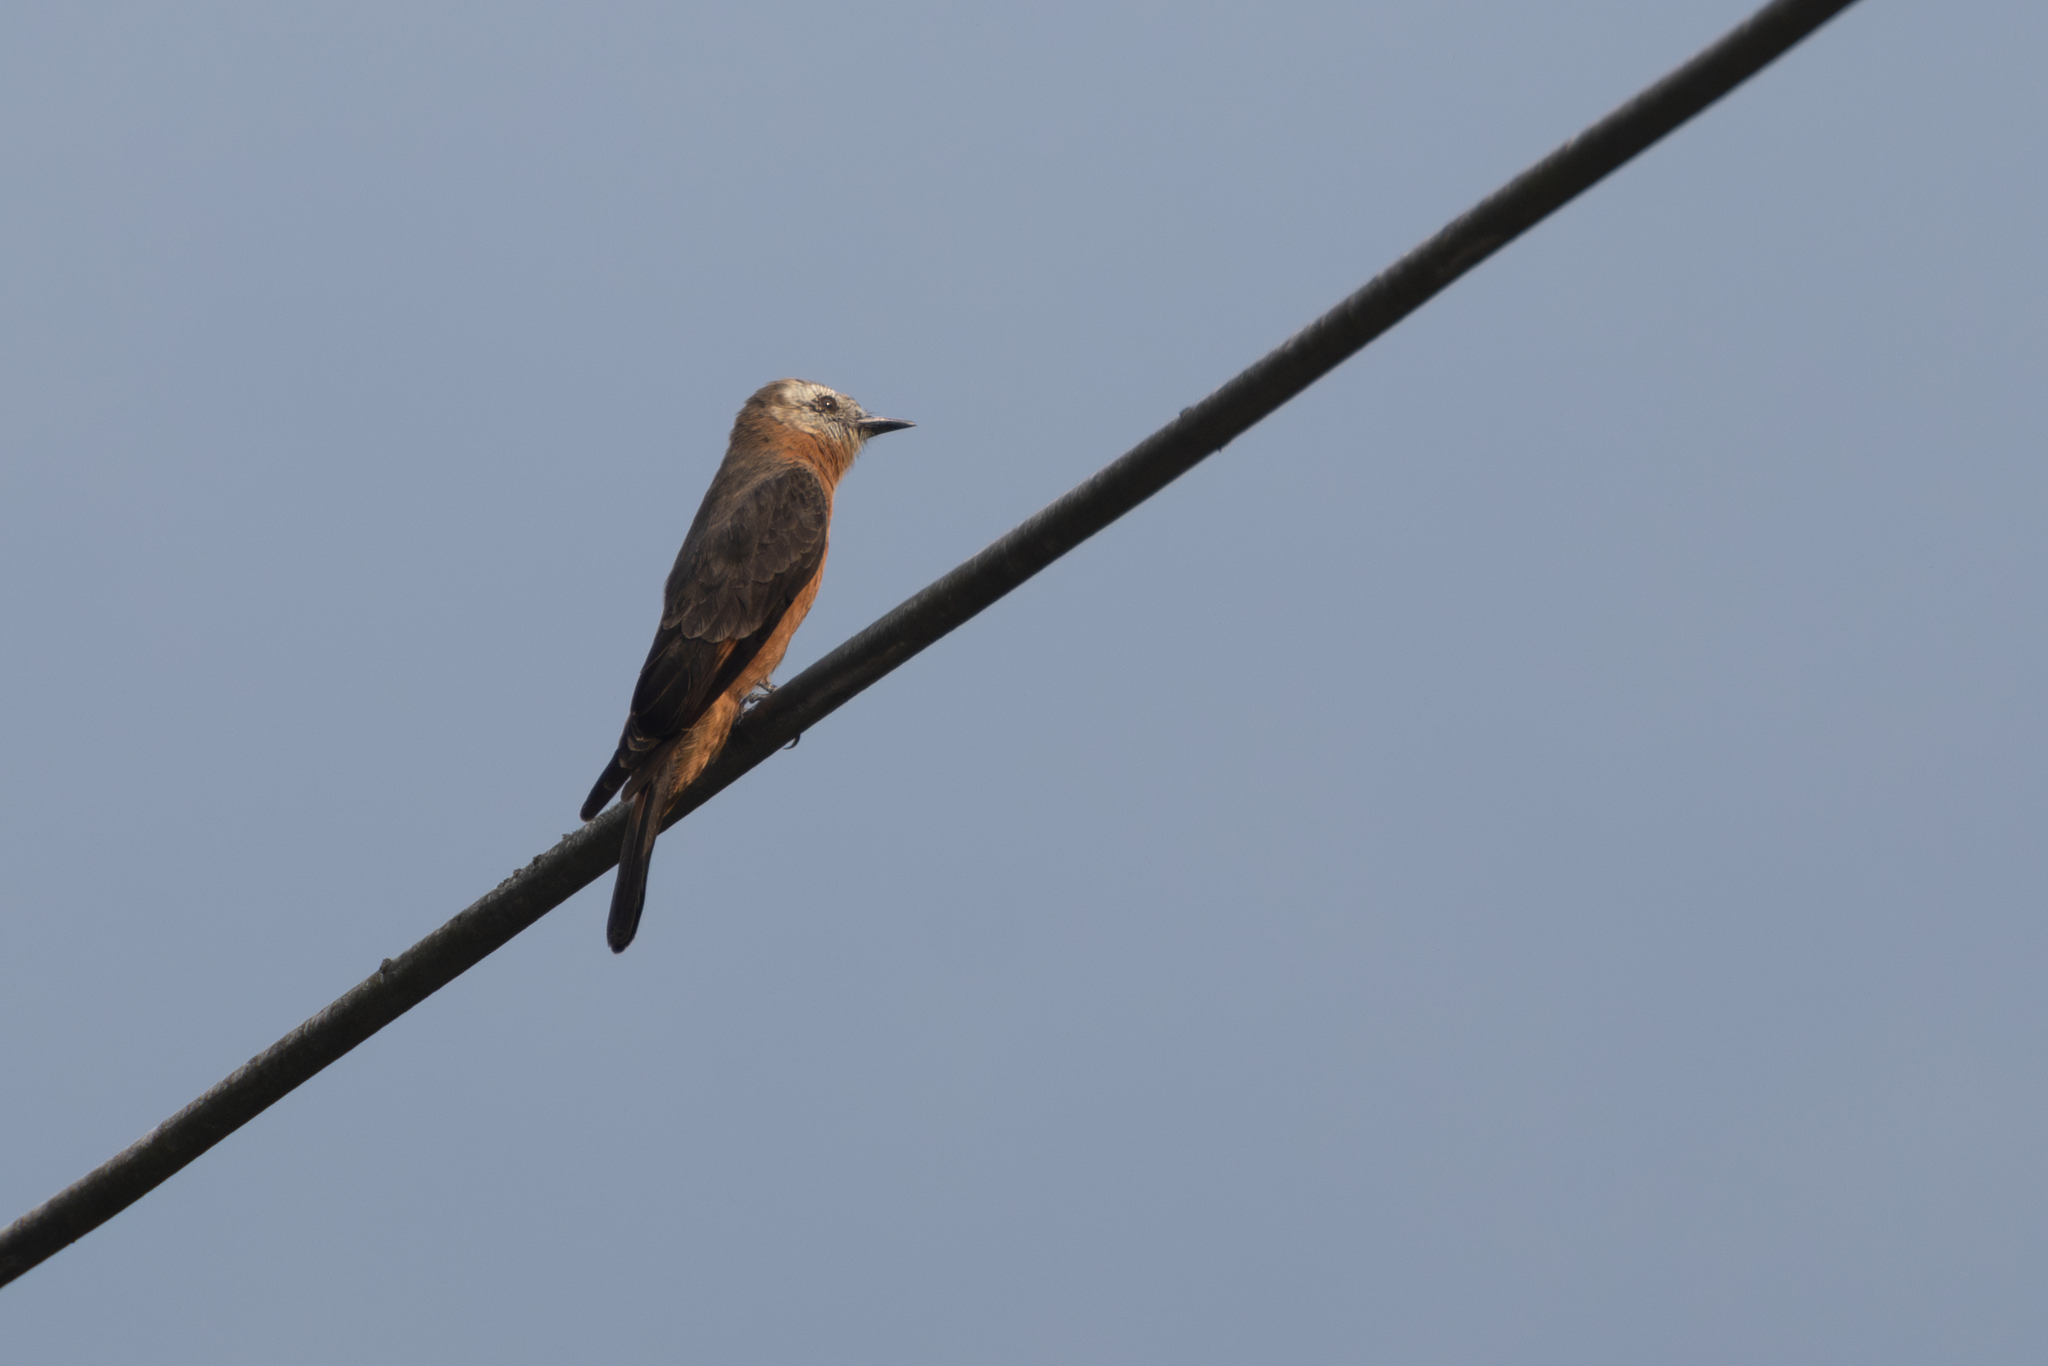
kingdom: Animalia
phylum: Chordata
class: Aves
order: Passeriformes
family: Tyrannidae
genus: Hirundinea
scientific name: Hirundinea ferruginea
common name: Cliff flycatcher
